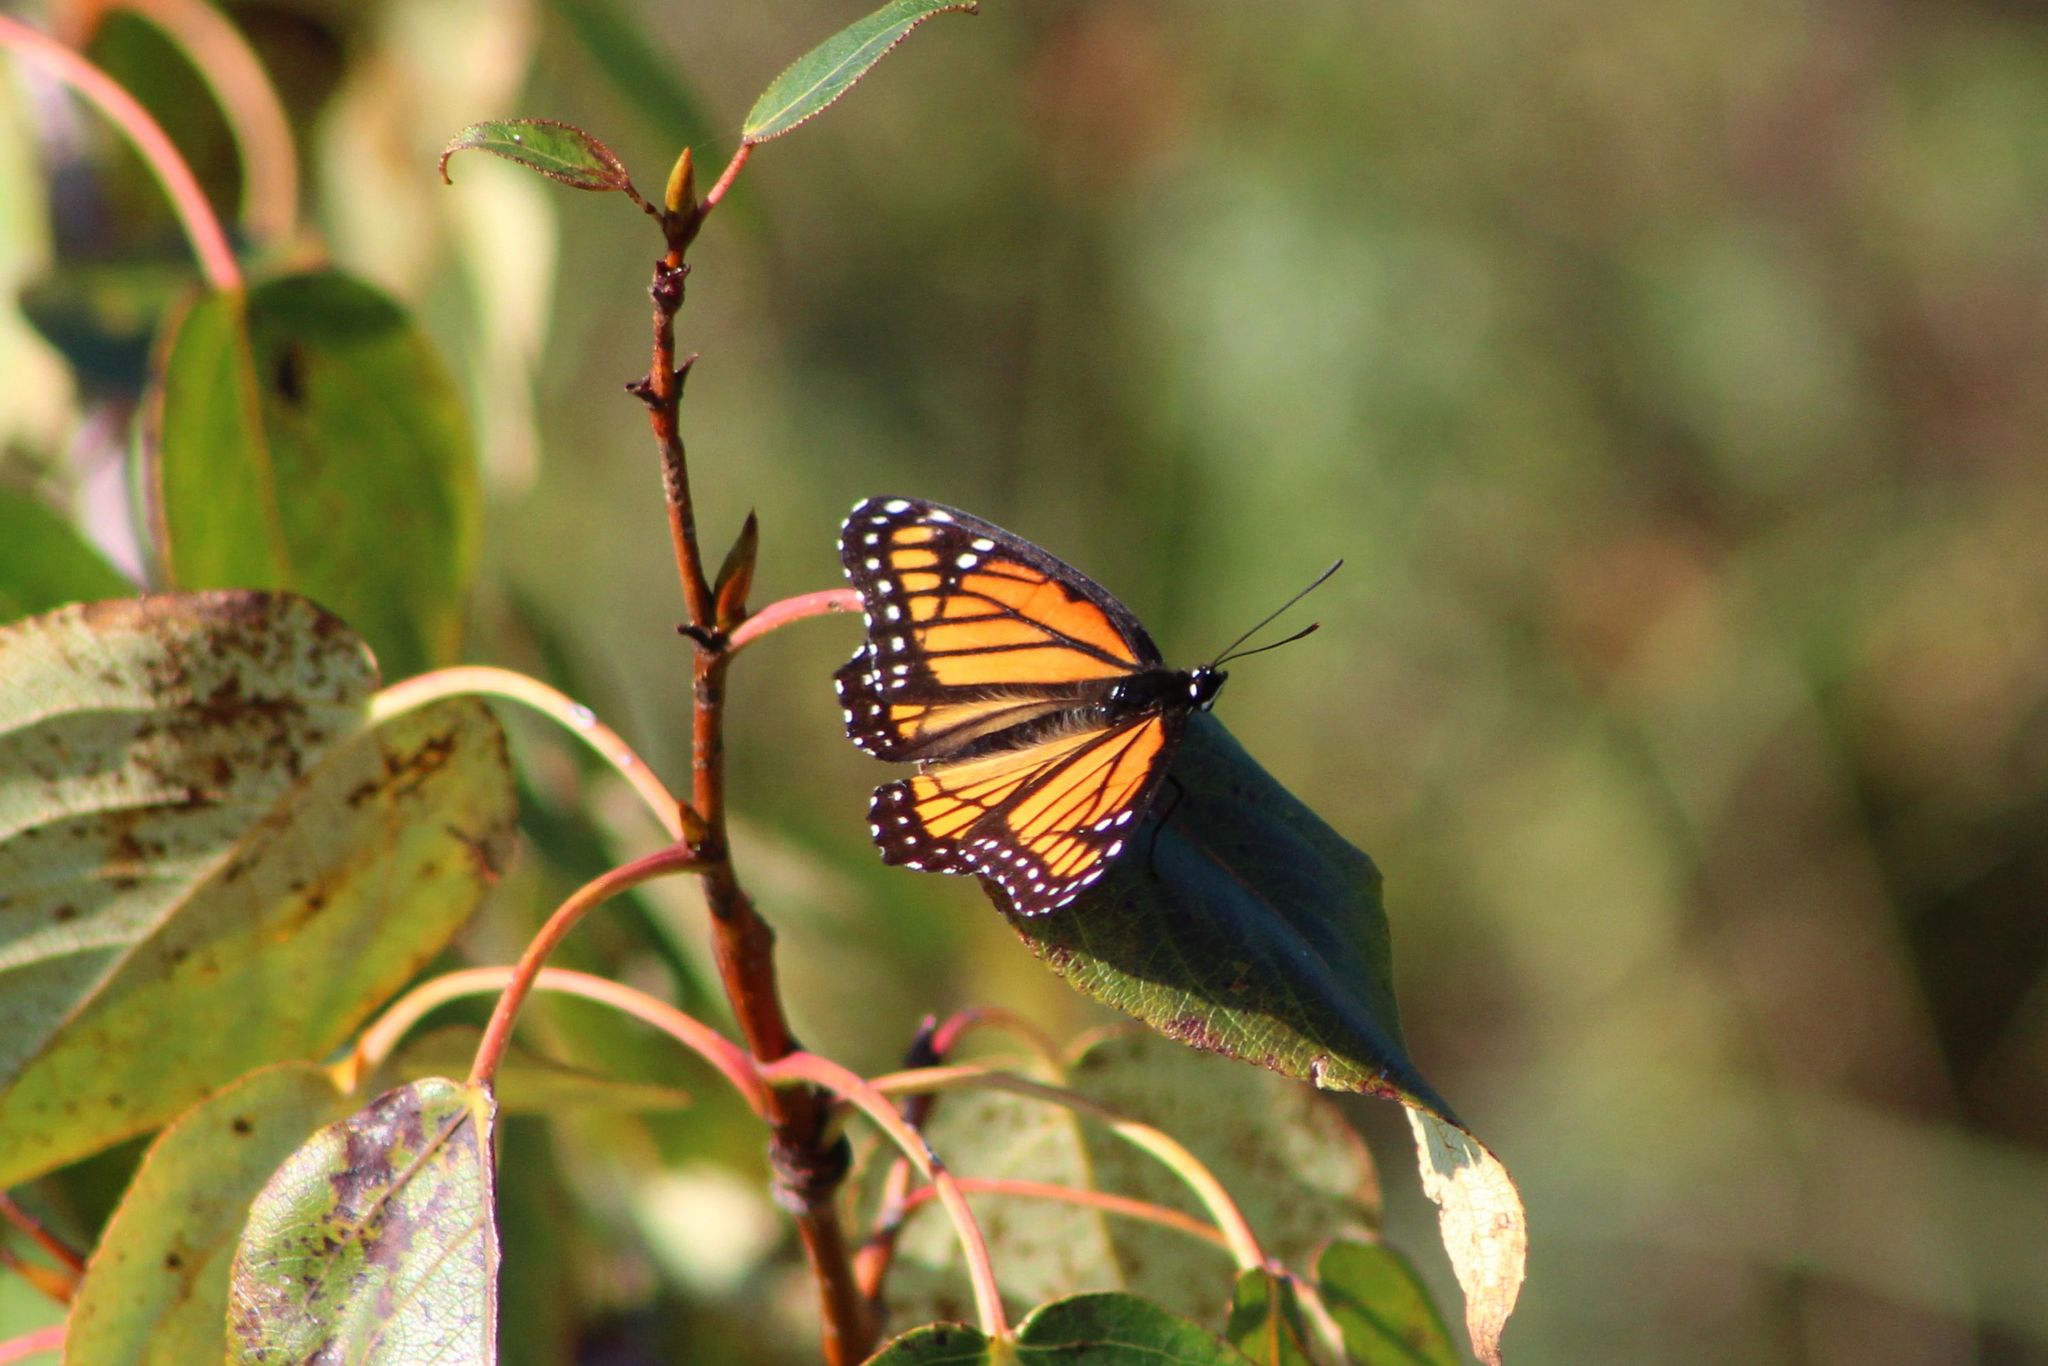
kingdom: Animalia
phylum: Arthropoda
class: Insecta
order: Lepidoptera
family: Nymphalidae
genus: Limenitis
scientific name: Limenitis archippus
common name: Viceroy
